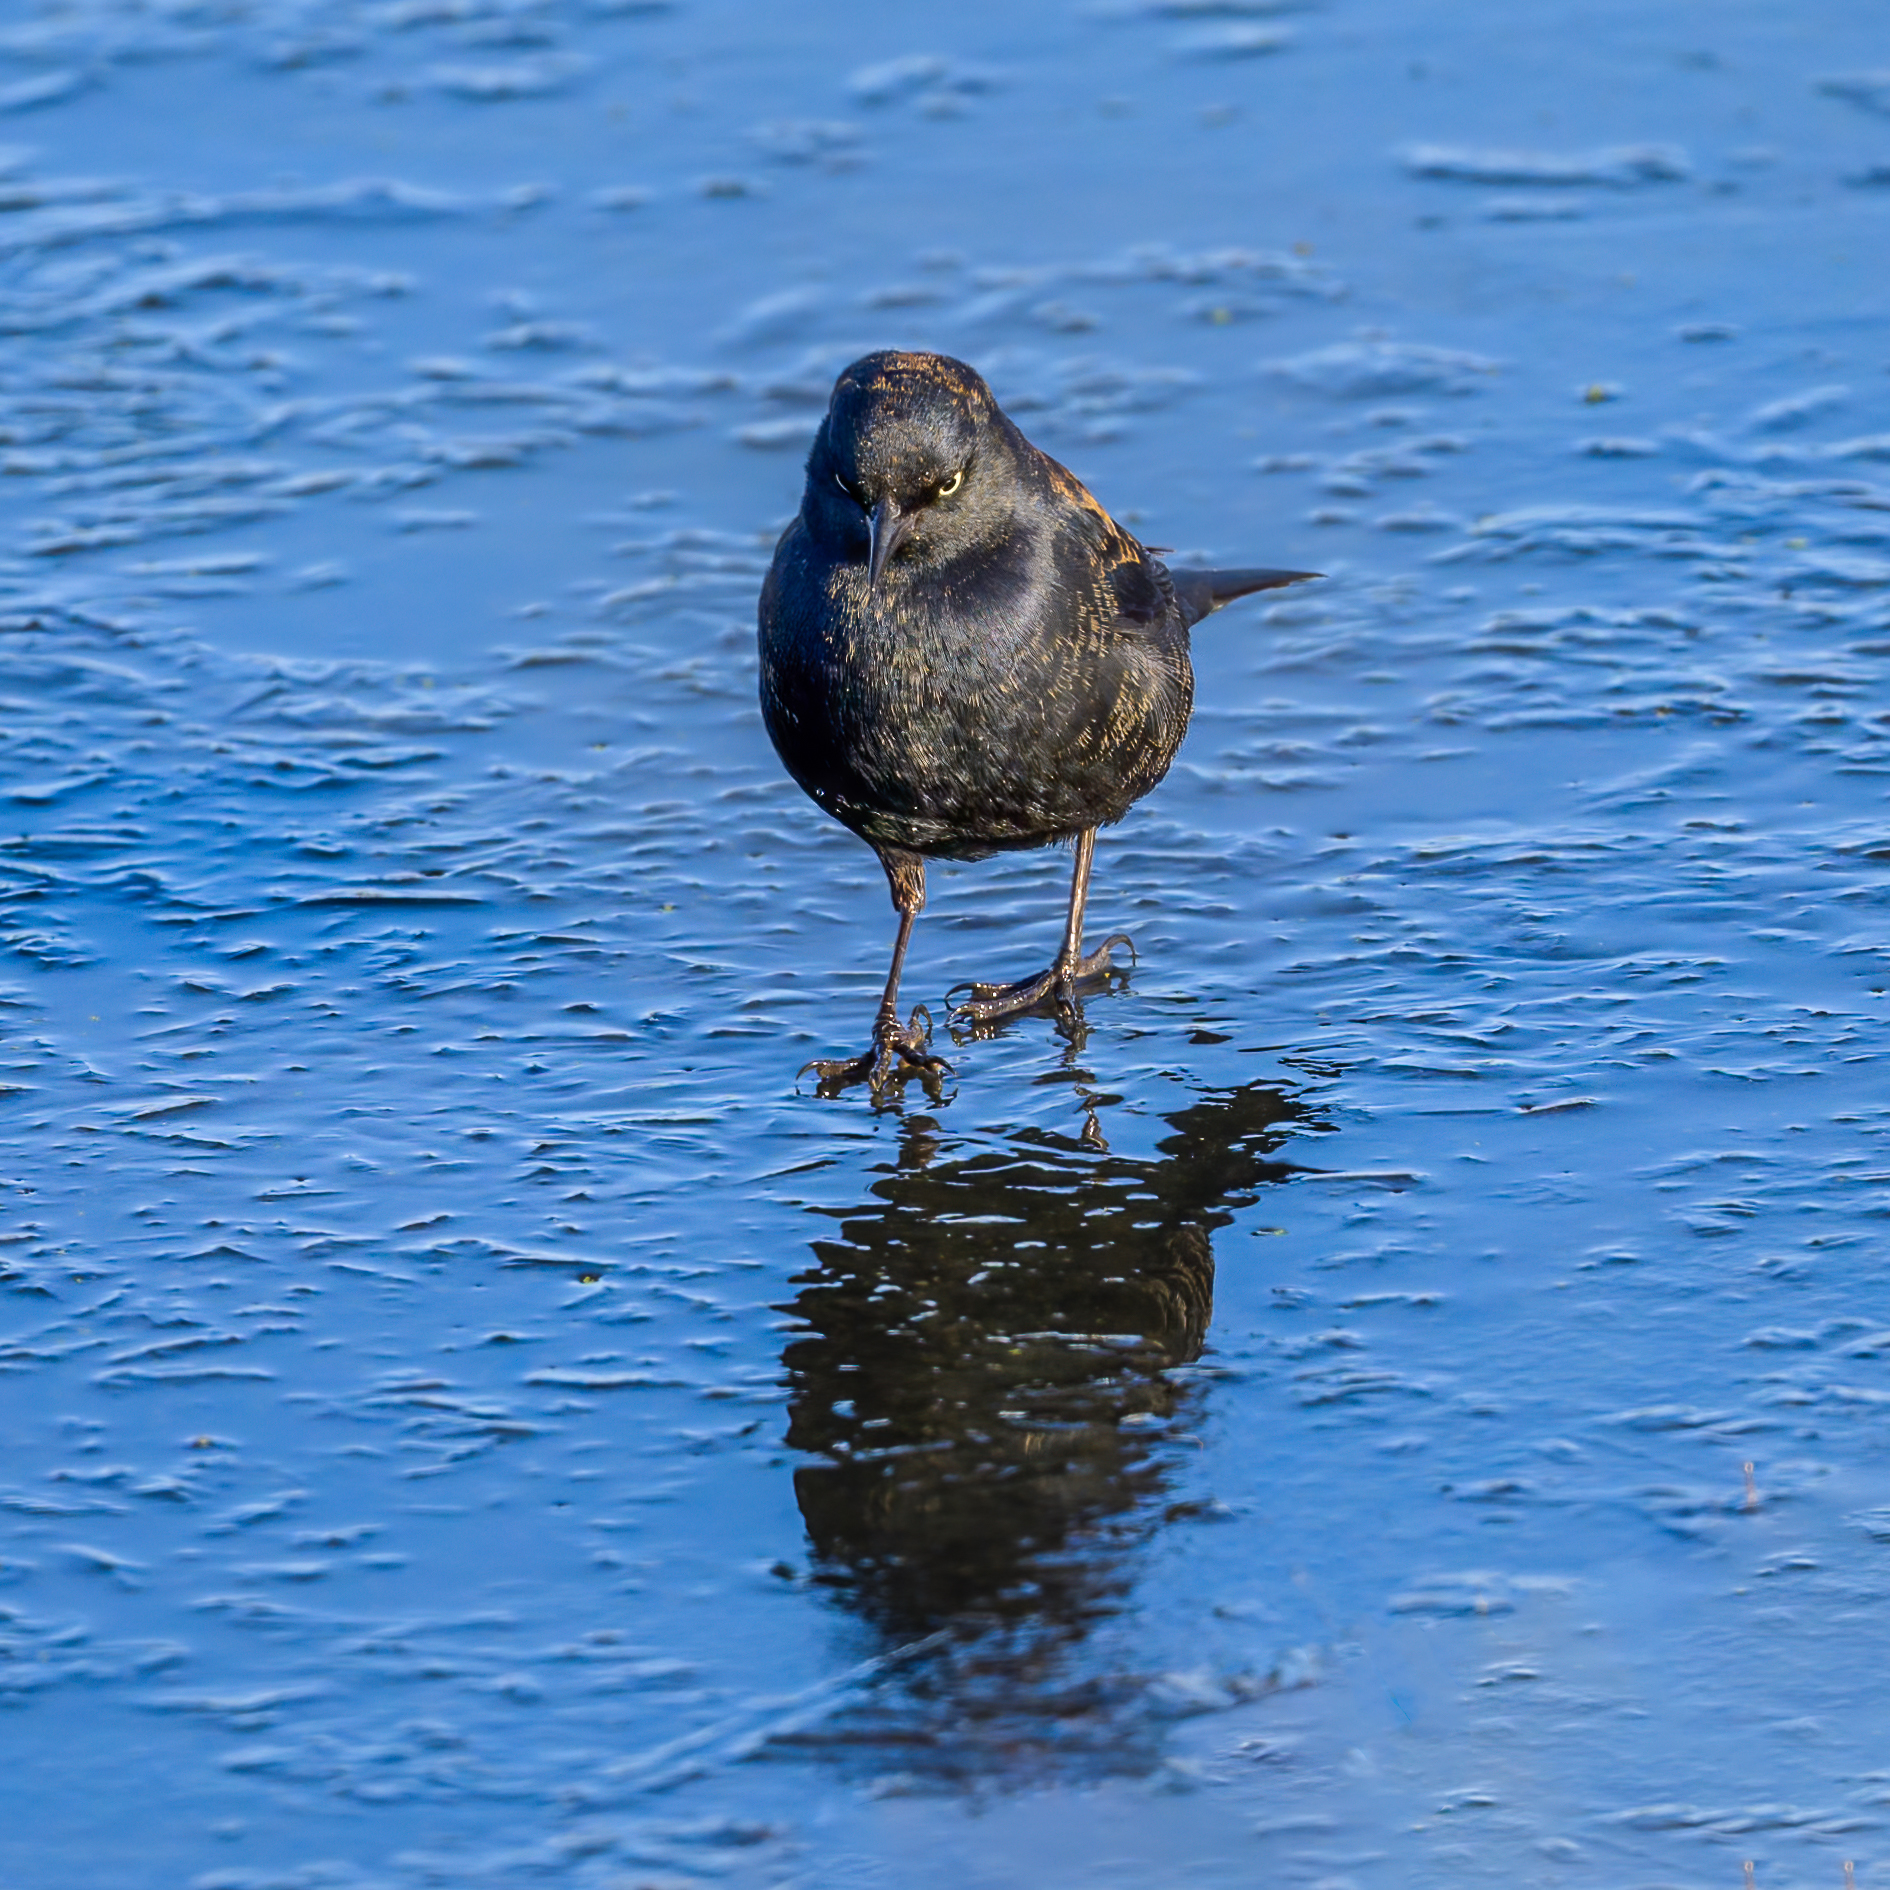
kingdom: Animalia
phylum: Chordata
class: Aves
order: Passeriformes
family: Icteridae
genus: Euphagus
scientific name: Euphagus carolinus
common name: Rusty blackbird
